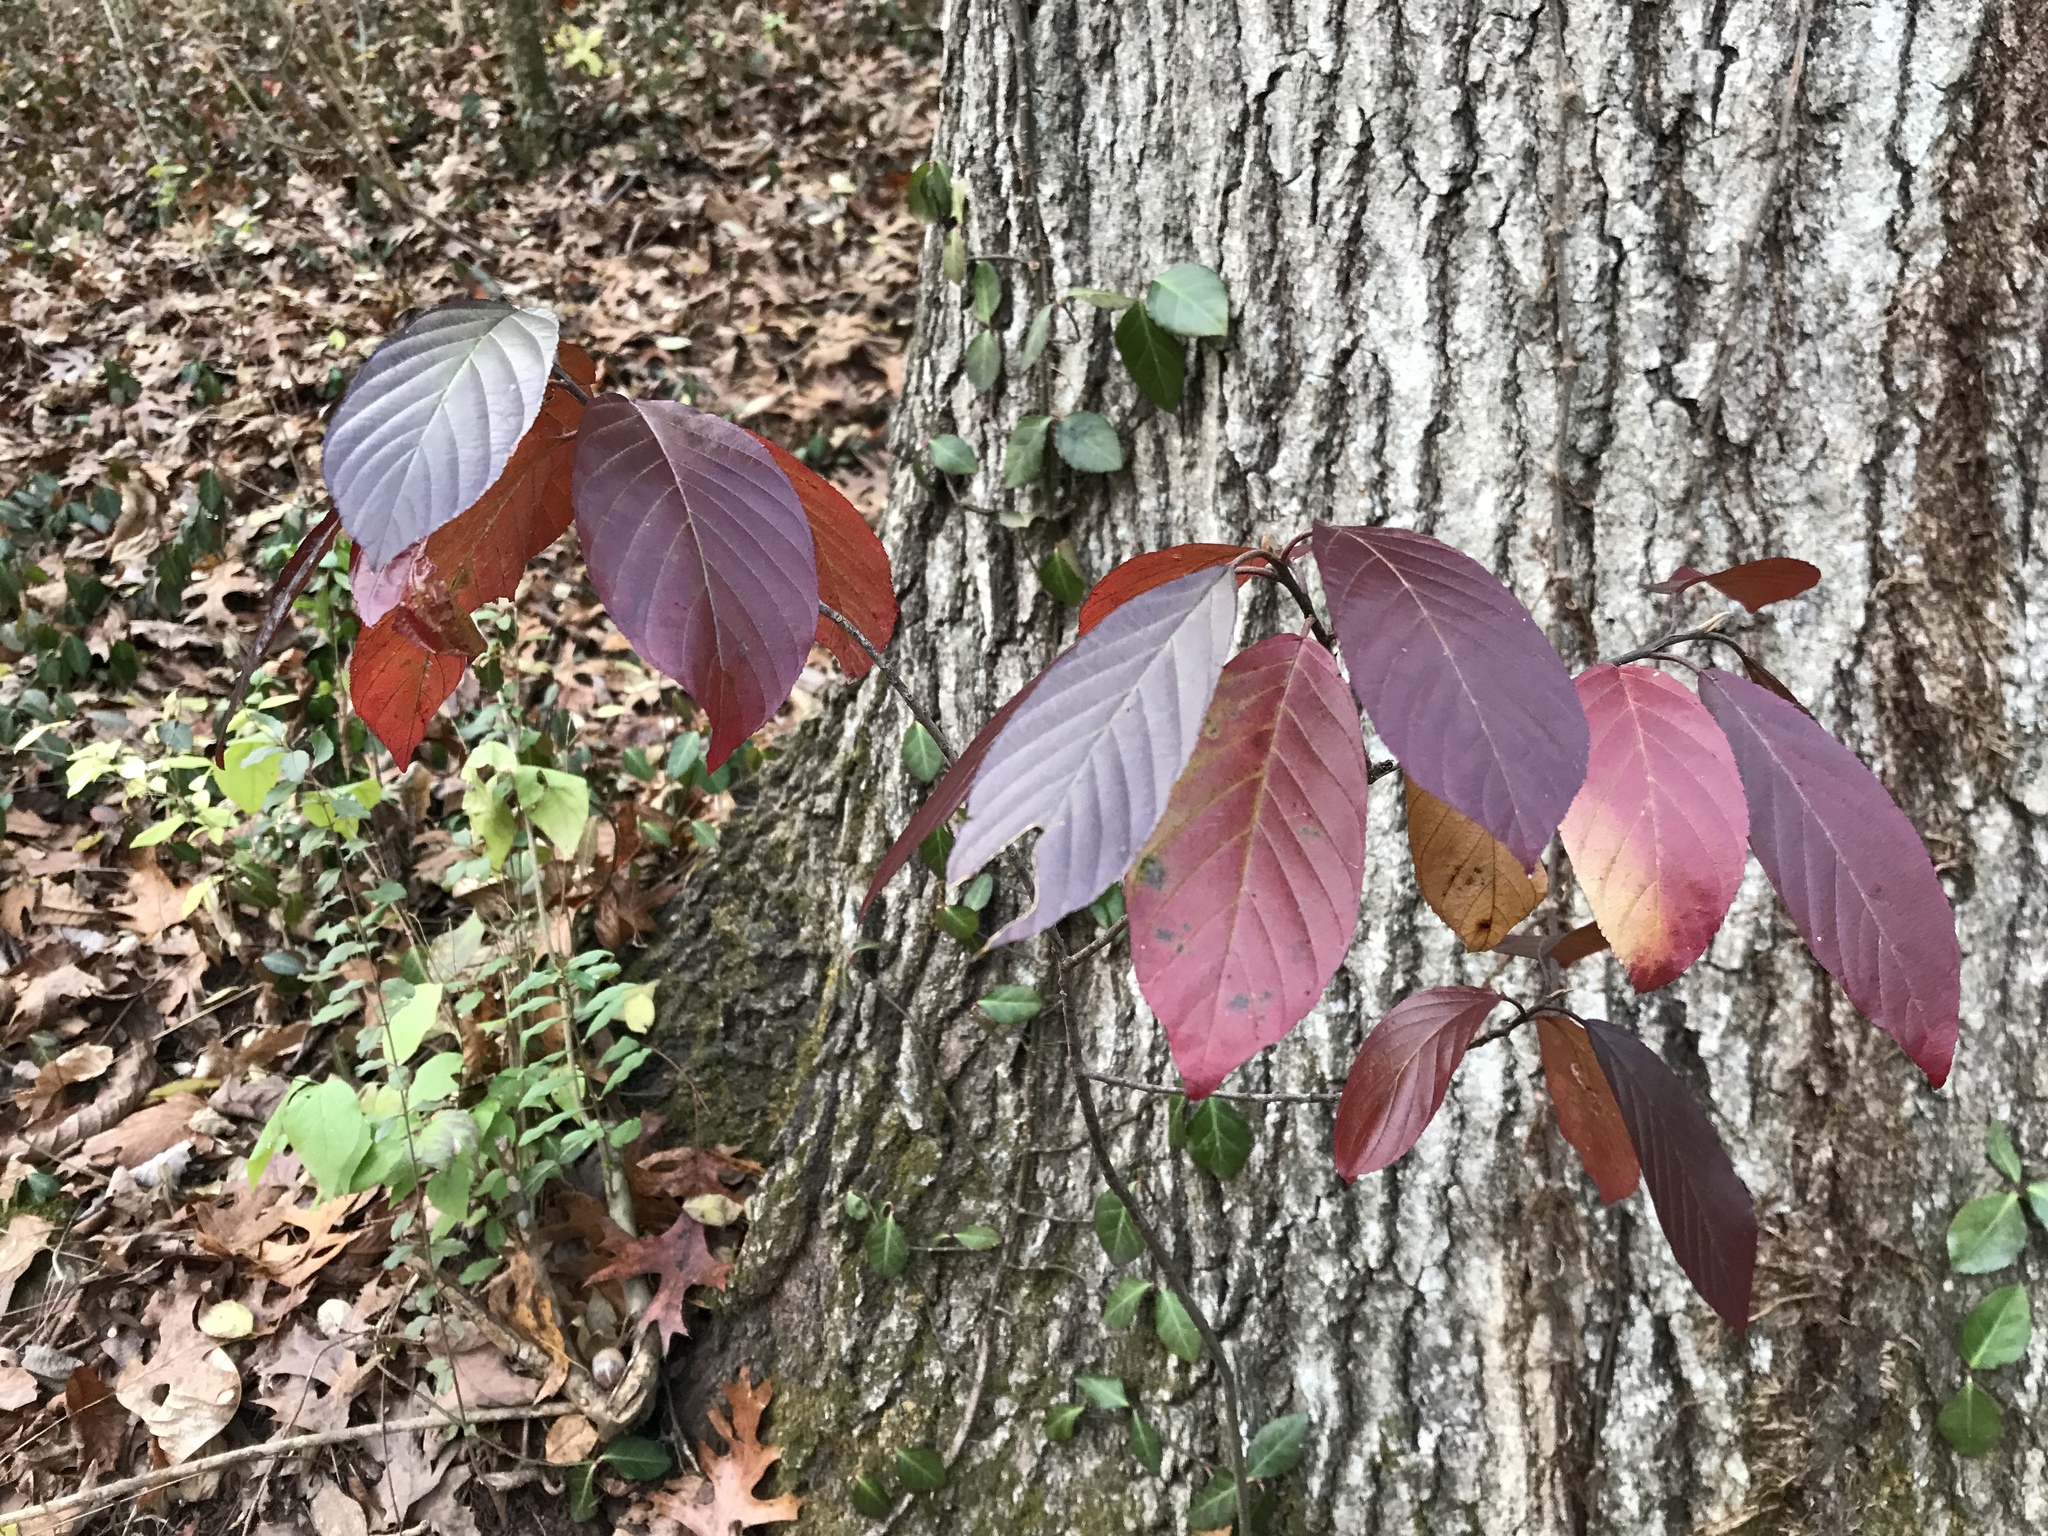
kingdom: Plantae
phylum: Tracheophyta
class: Magnoliopsida
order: Rosales
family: Rhamnaceae
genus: Frangula
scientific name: Frangula caroliniana
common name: Carolina buckthorn
